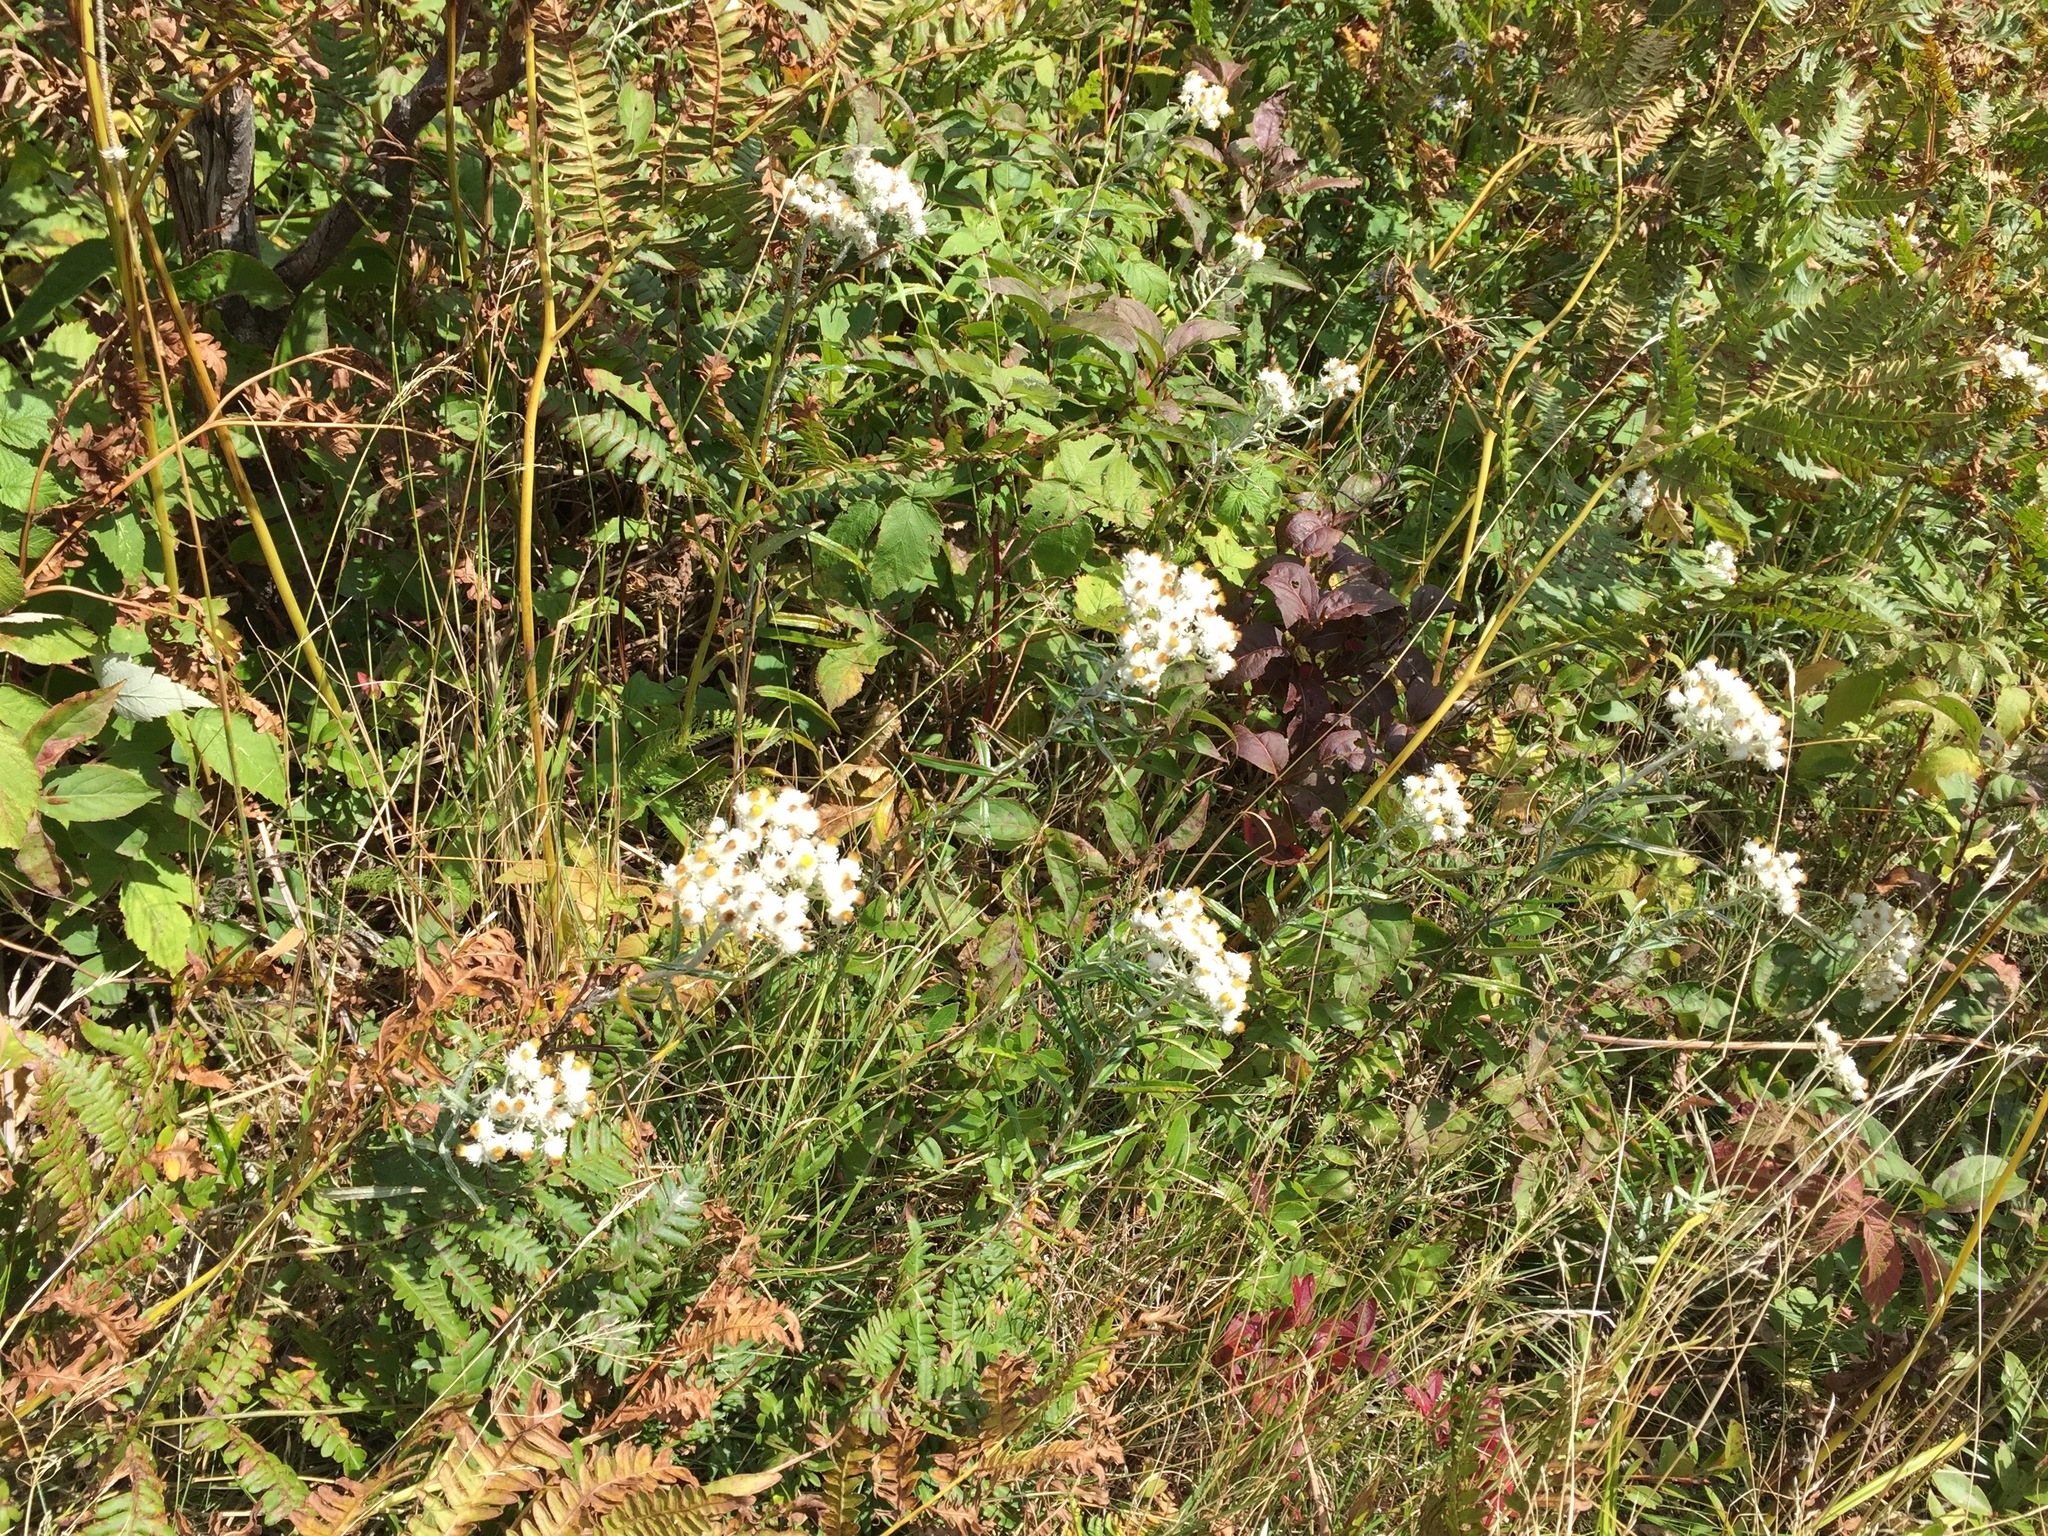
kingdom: Plantae
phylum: Tracheophyta
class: Magnoliopsida
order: Asterales
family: Asteraceae
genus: Anaphalis
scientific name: Anaphalis margaritacea
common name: Pearly everlasting
